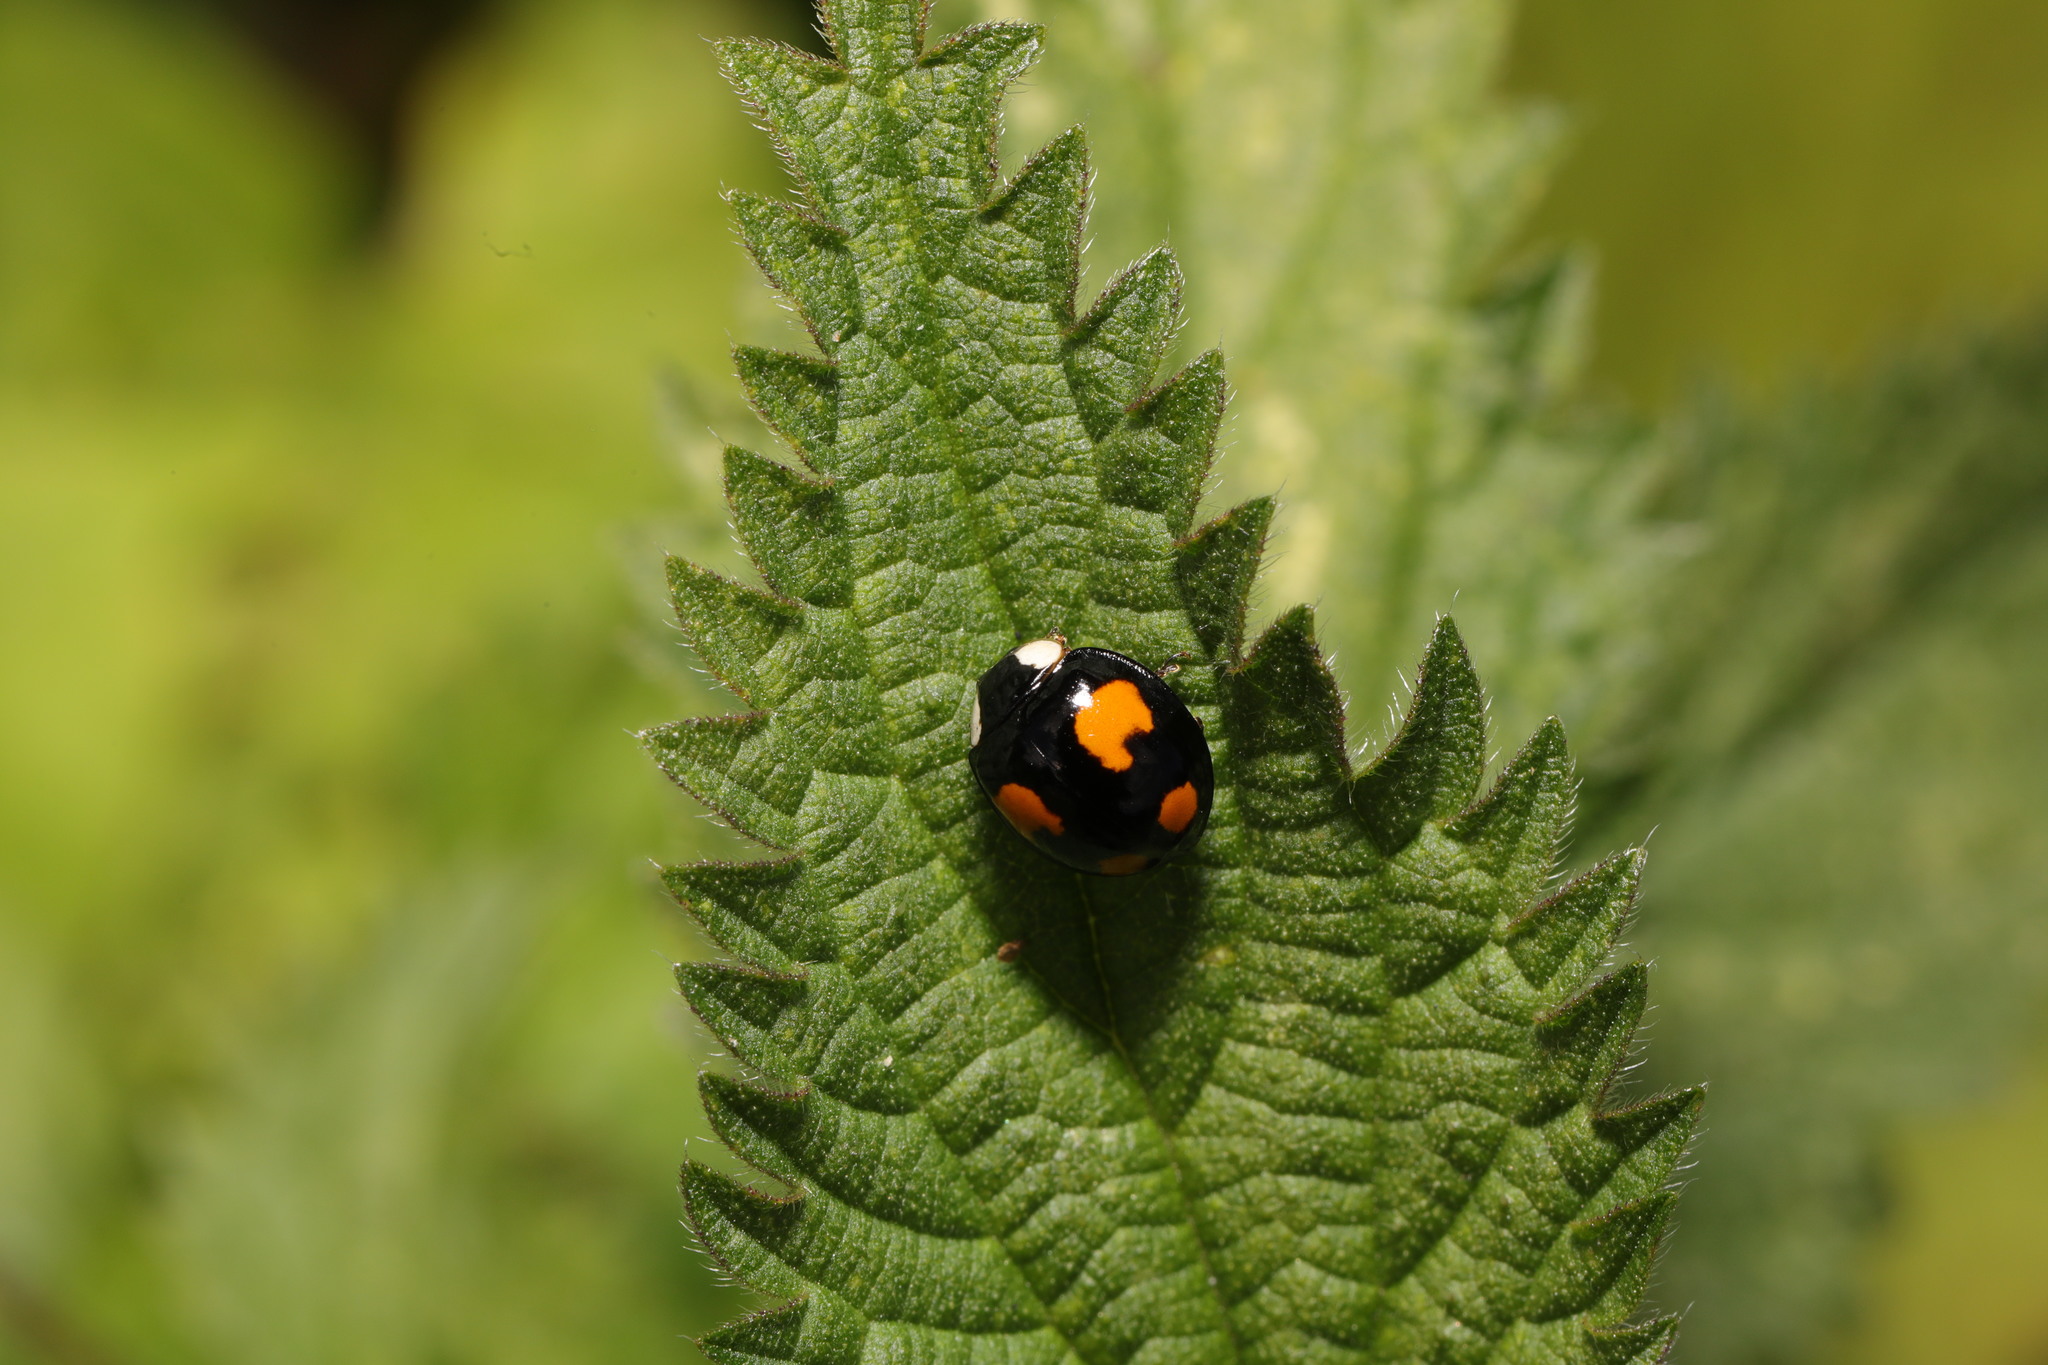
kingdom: Animalia
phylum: Arthropoda
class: Insecta
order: Coleoptera
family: Coccinellidae
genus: Harmonia
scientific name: Harmonia axyridis
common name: Harlequin ladybird
